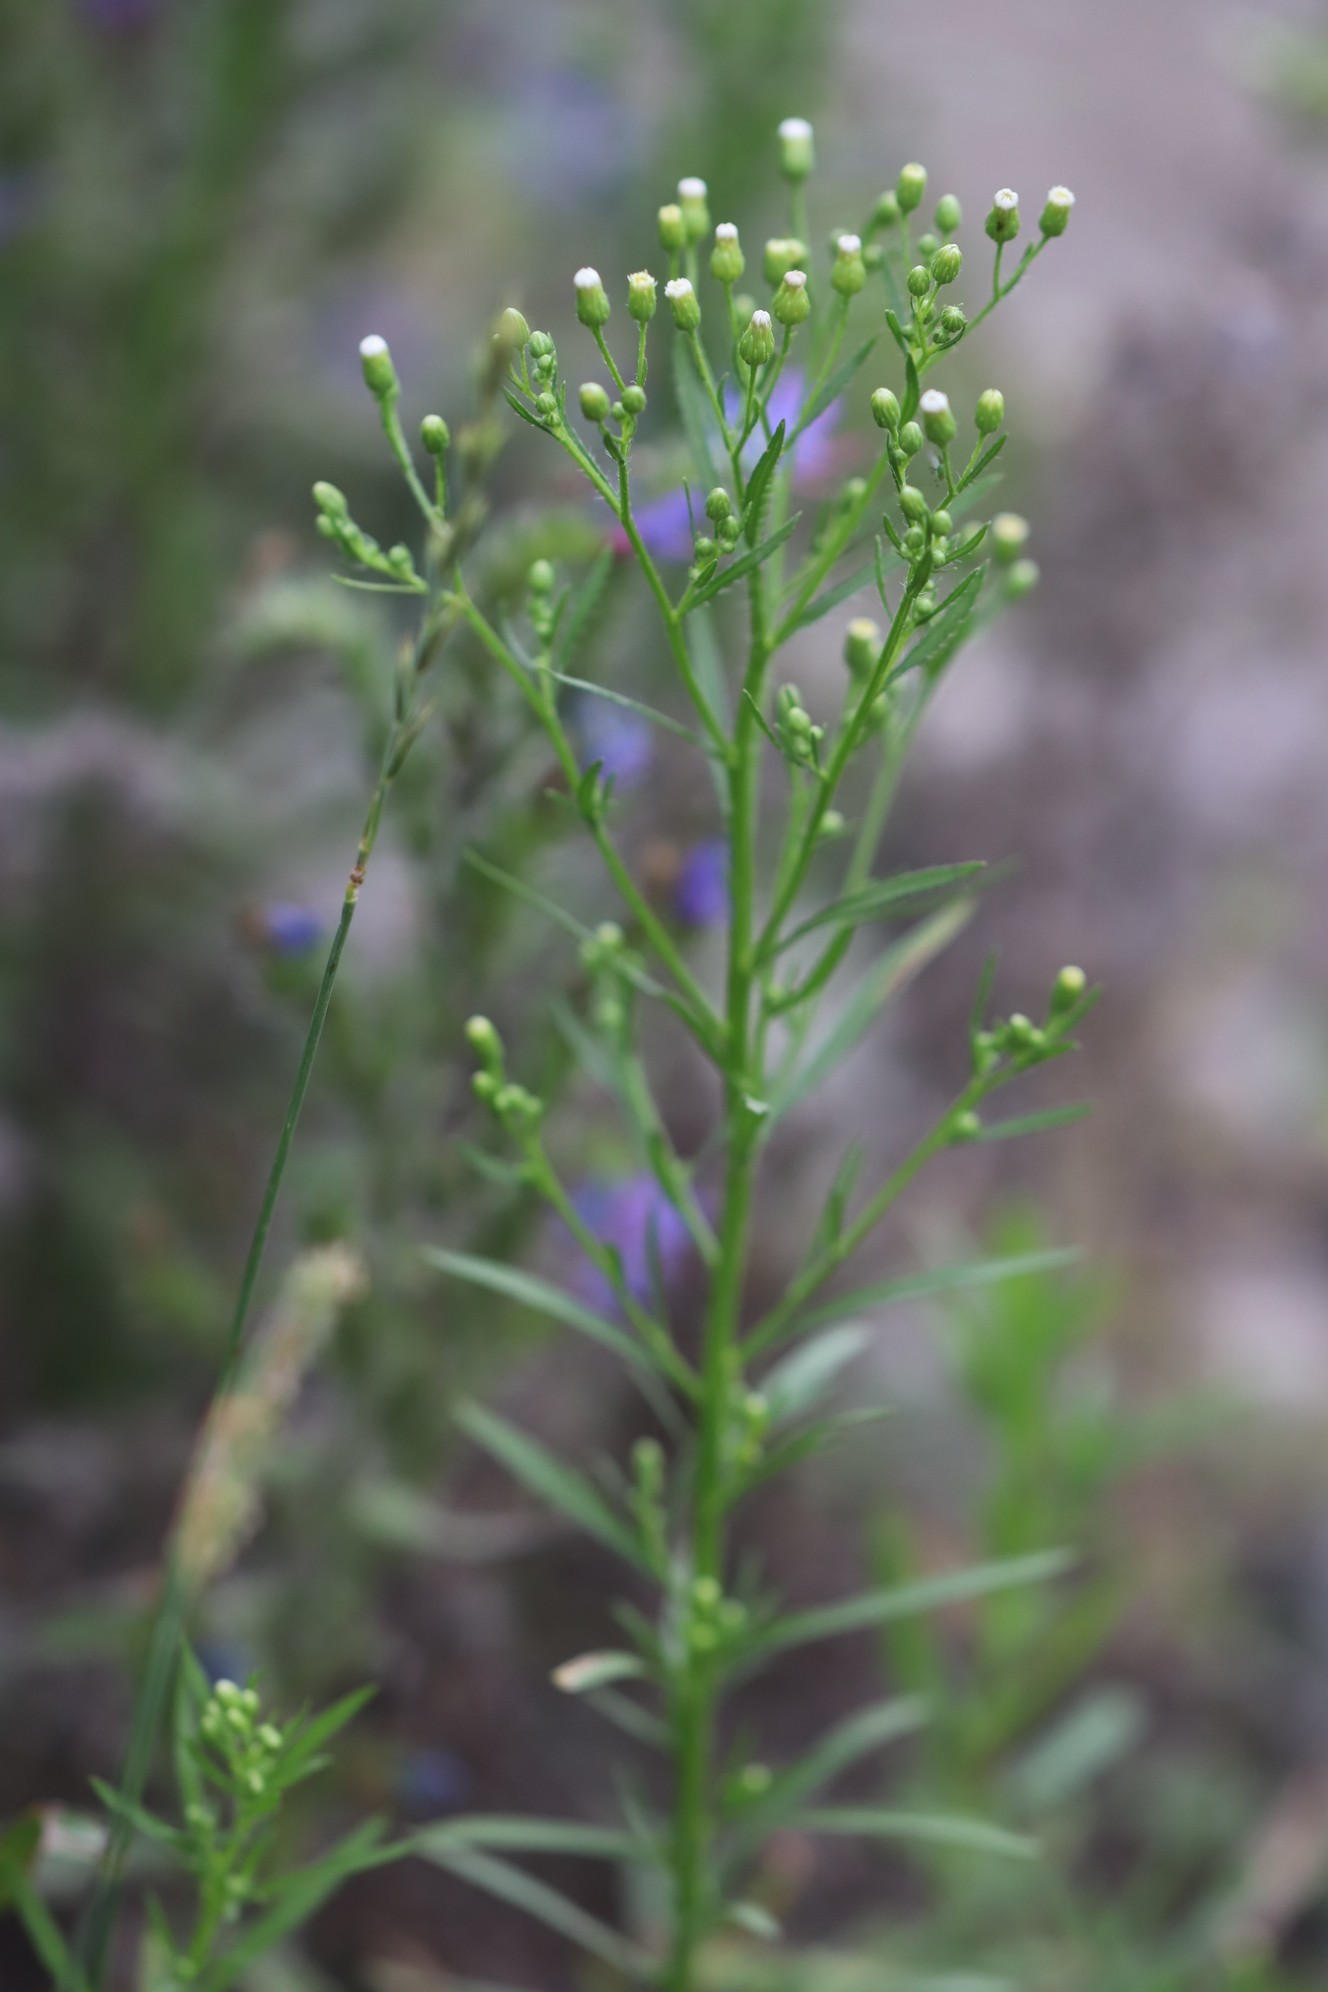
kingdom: Plantae
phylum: Tracheophyta
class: Magnoliopsida
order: Asterales
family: Asteraceae
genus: Erigeron
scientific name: Erigeron canadensis
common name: Canadian fleabane
